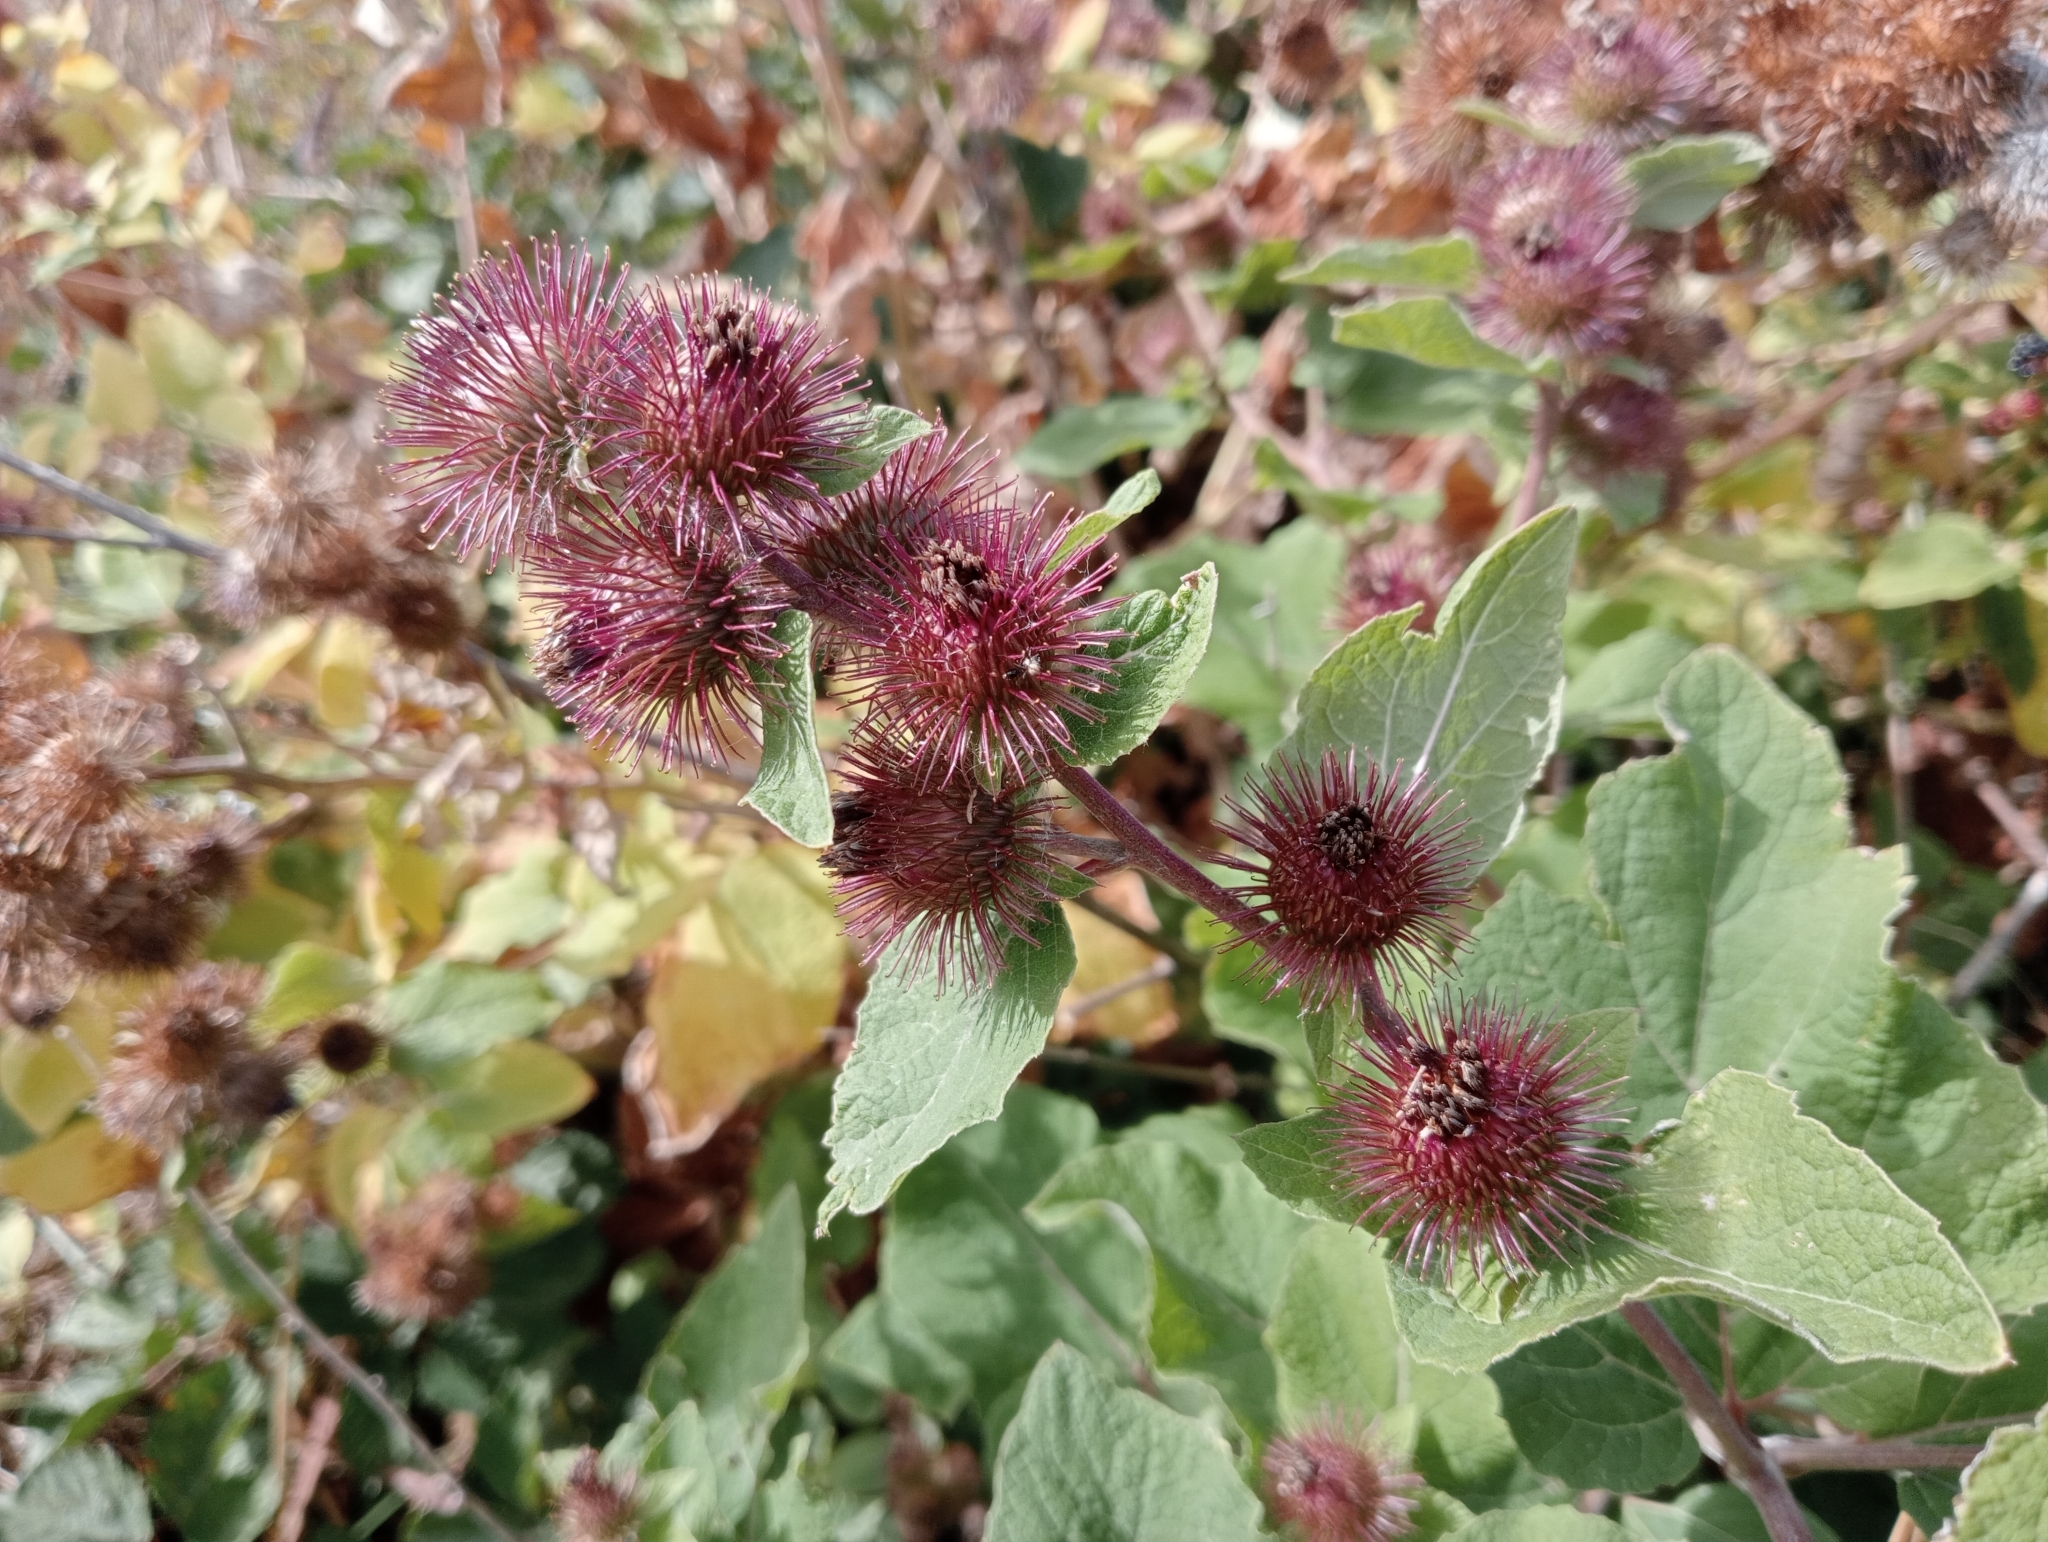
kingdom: Plantae
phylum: Tracheophyta
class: Magnoliopsida
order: Asterales
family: Asteraceae
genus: Arctium
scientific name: Arctium minus
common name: Lesser burdock
